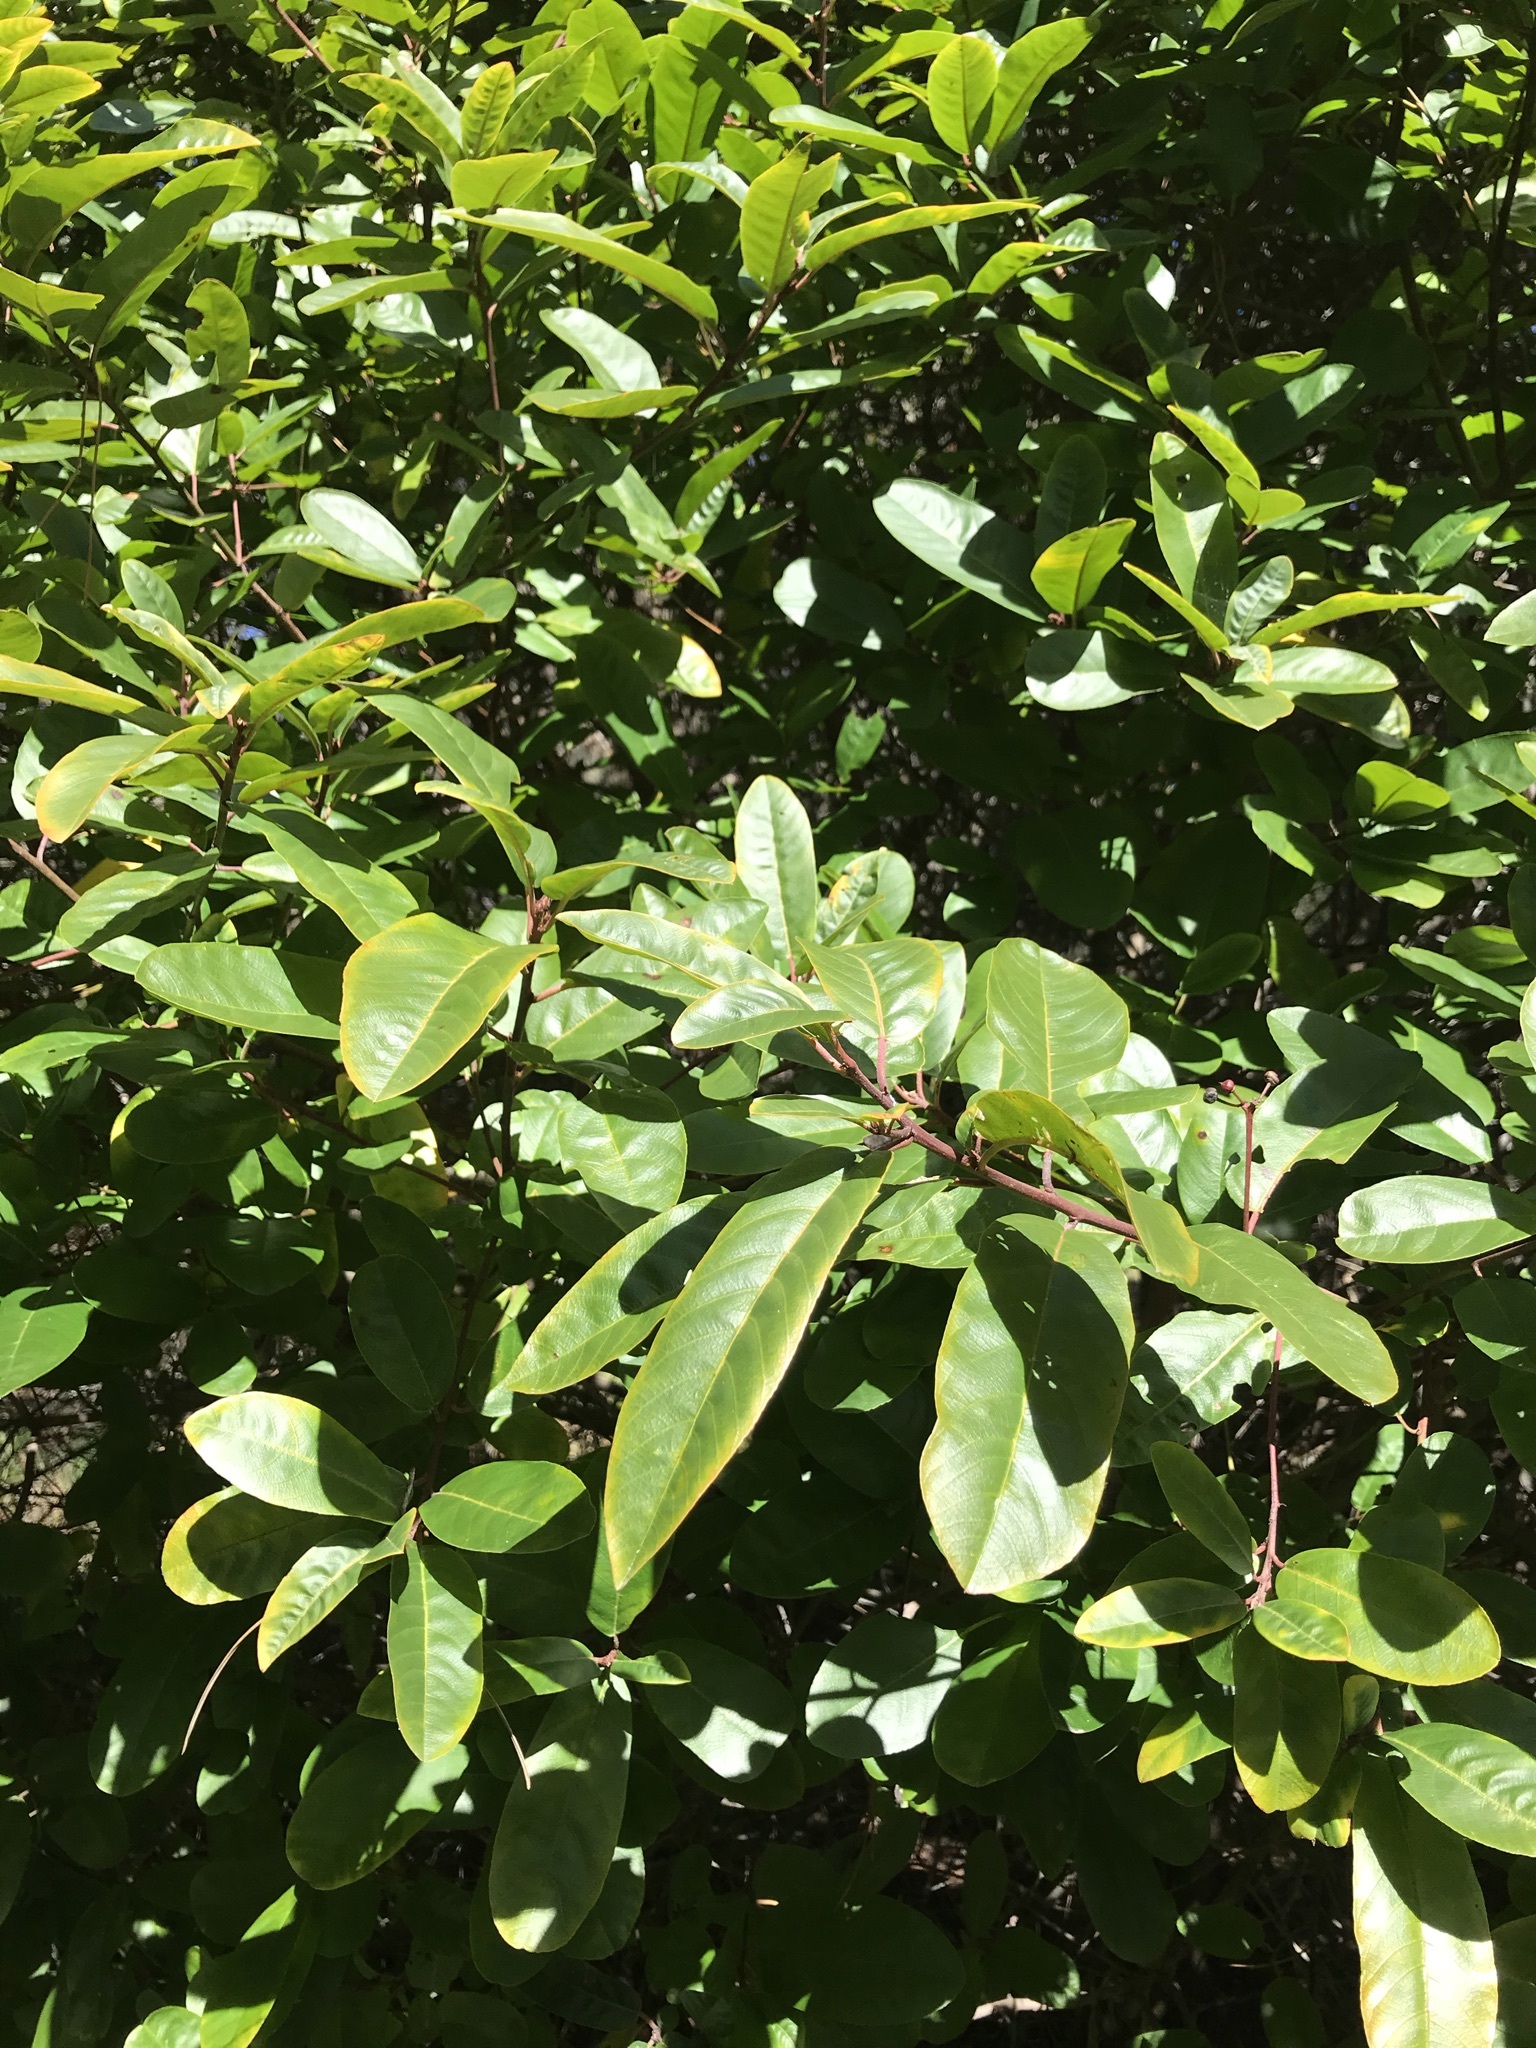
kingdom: Plantae
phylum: Tracheophyta
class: Magnoliopsida
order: Rosales
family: Rhamnaceae
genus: Frangula
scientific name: Frangula californica
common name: California buckthorn
